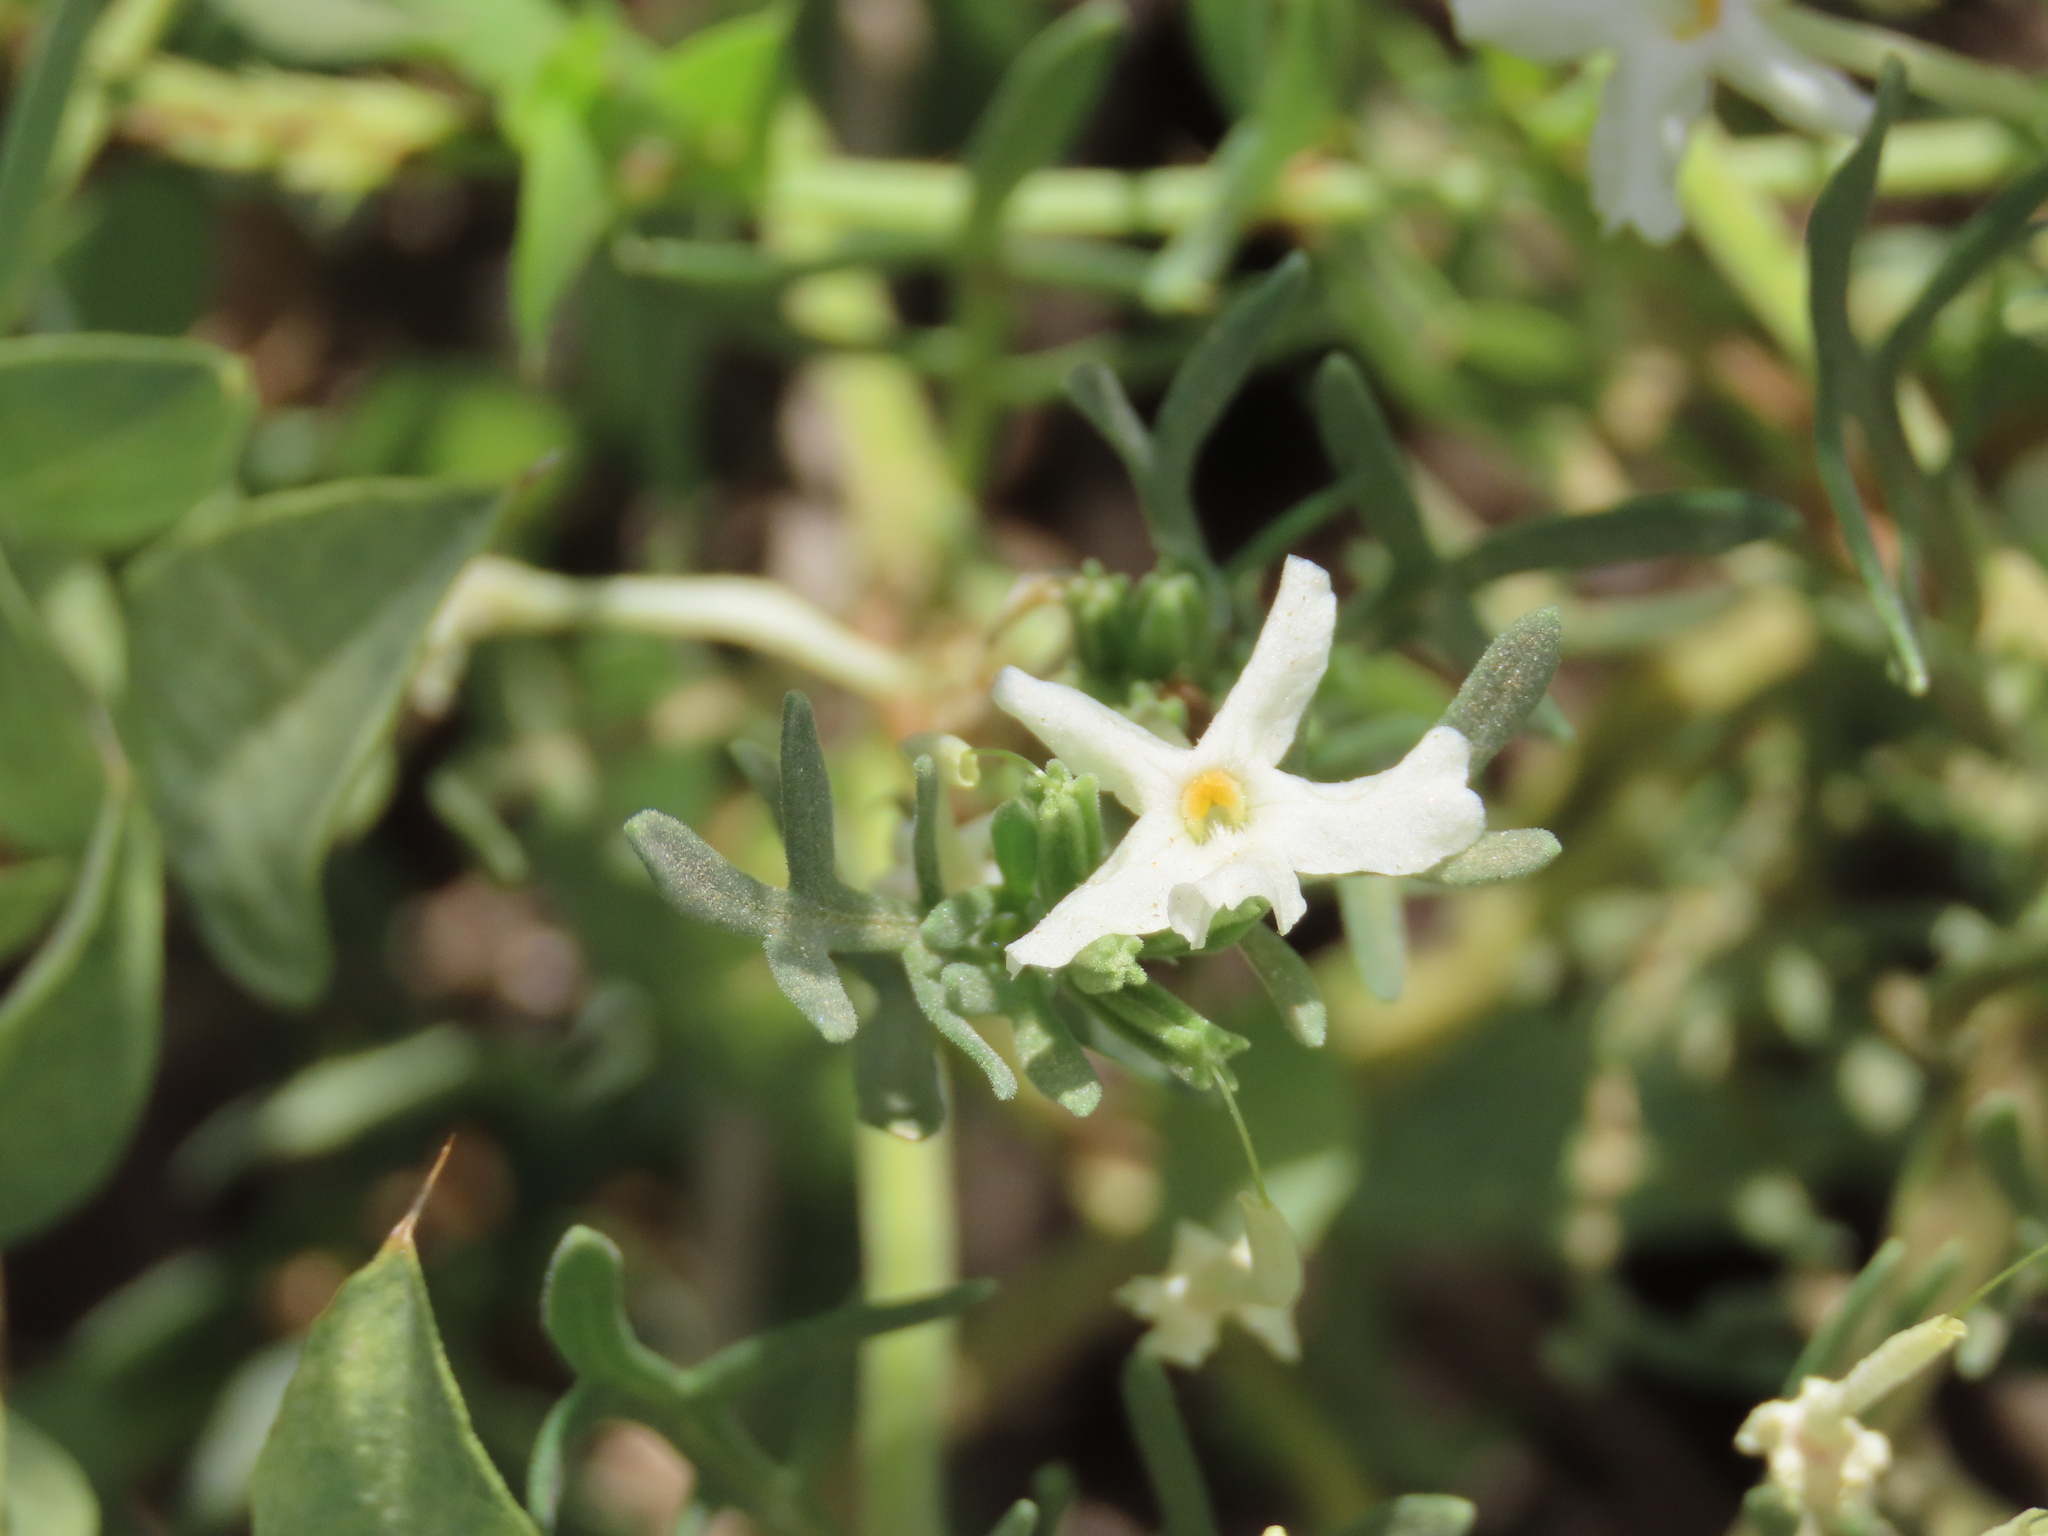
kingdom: Plantae
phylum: Tracheophyta
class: Magnoliopsida
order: Lamiales
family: Verbenaceae
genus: Chascanum
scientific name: Chascanum pinnatifidum
